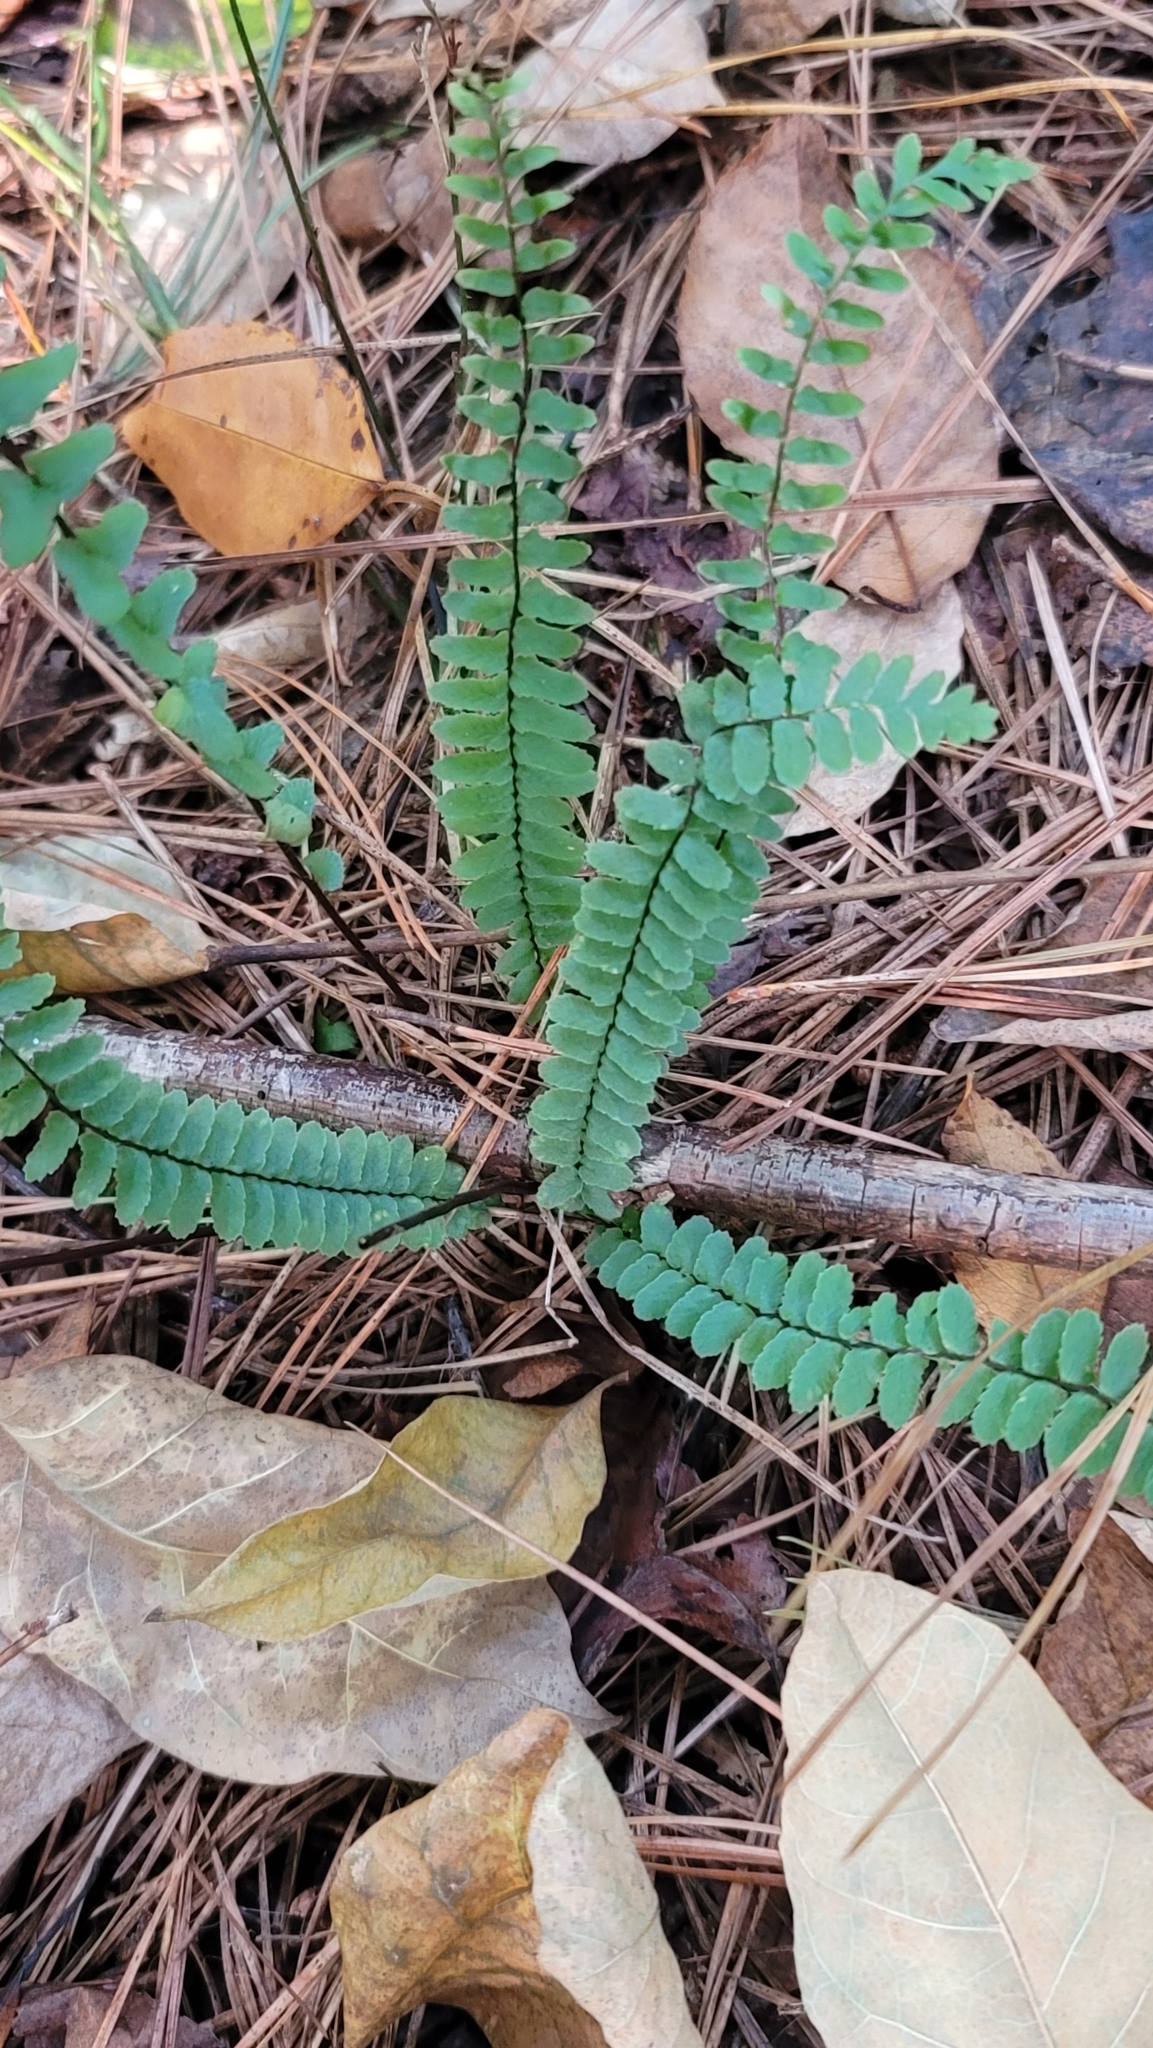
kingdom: Plantae
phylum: Tracheophyta
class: Polypodiopsida
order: Polypodiales
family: Aspleniaceae
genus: Asplenium
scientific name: Asplenium platyneuron
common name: Ebony spleenwort
